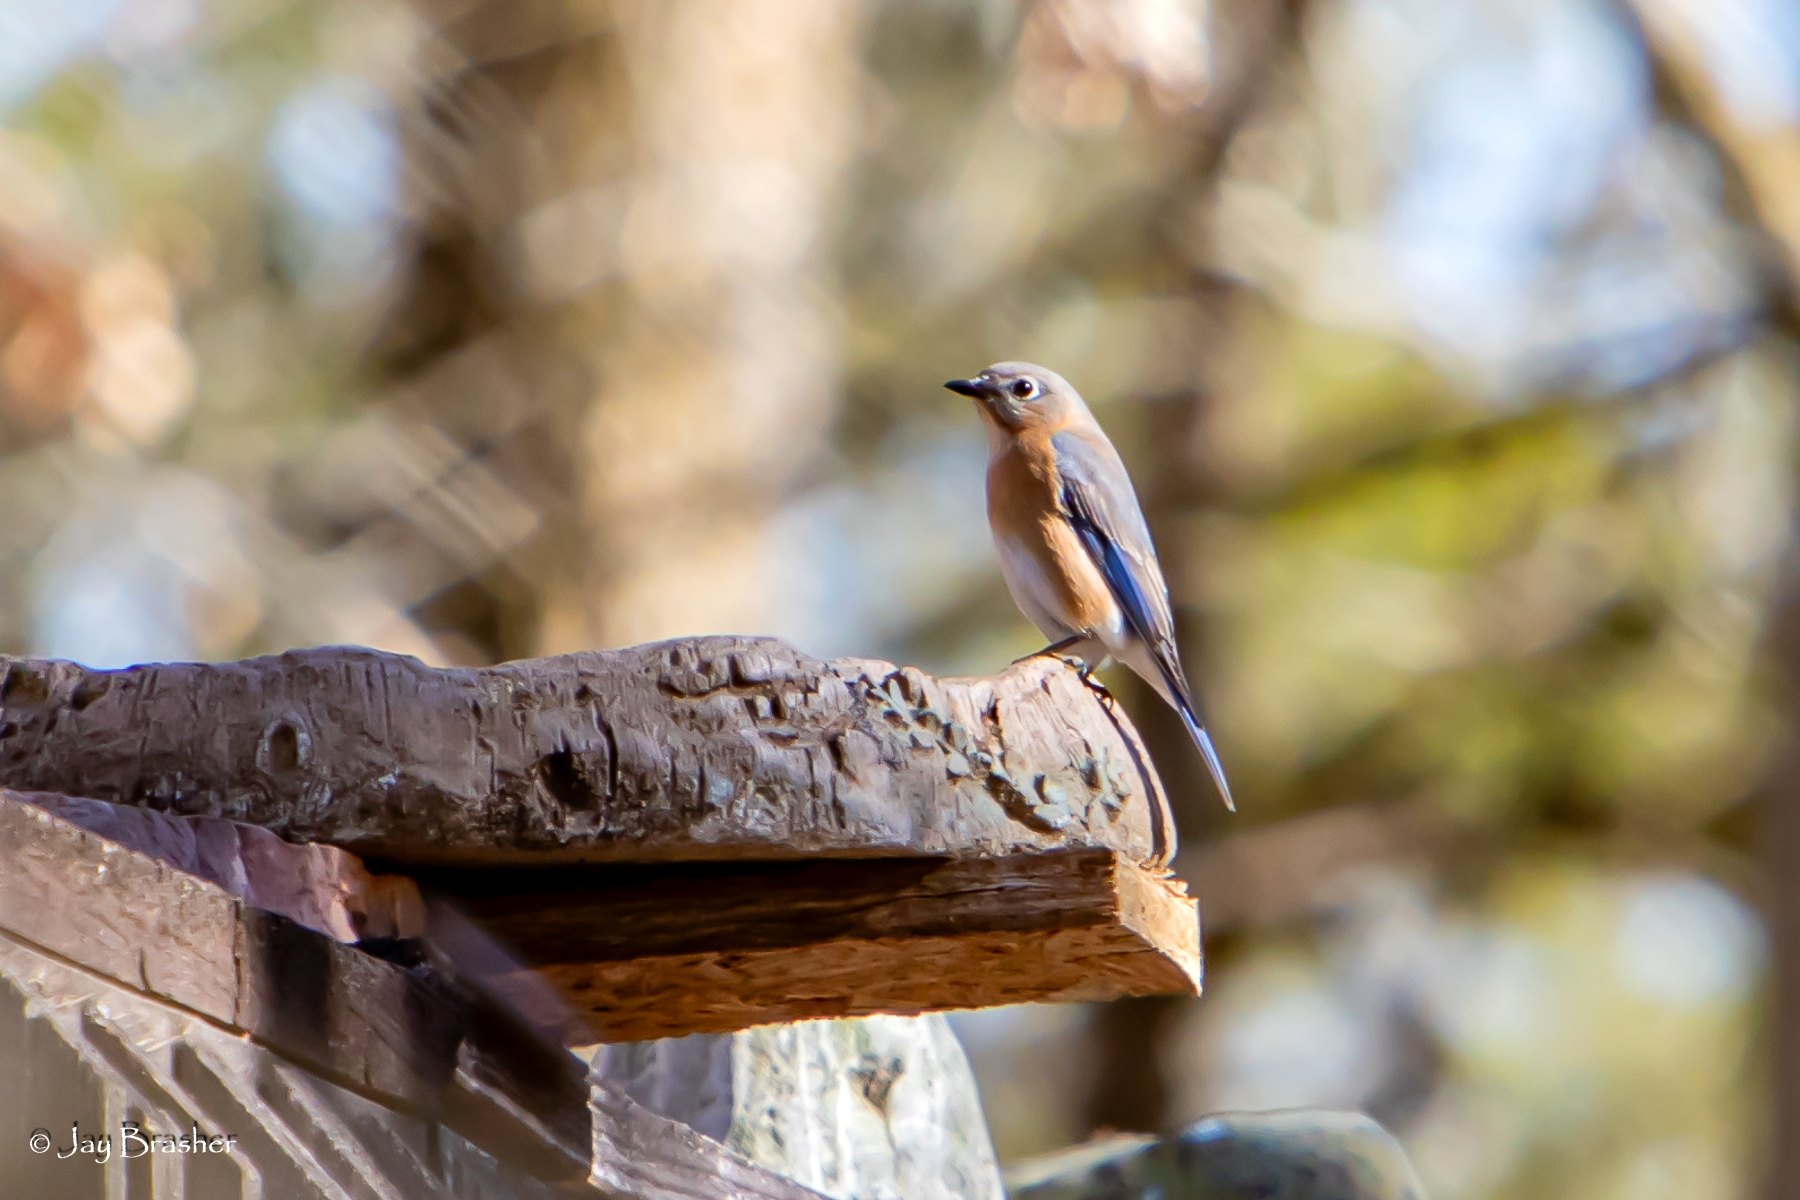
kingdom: Animalia
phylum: Chordata
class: Aves
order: Passeriformes
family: Turdidae
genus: Sialia
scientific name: Sialia sialis
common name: Eastern bluebird
